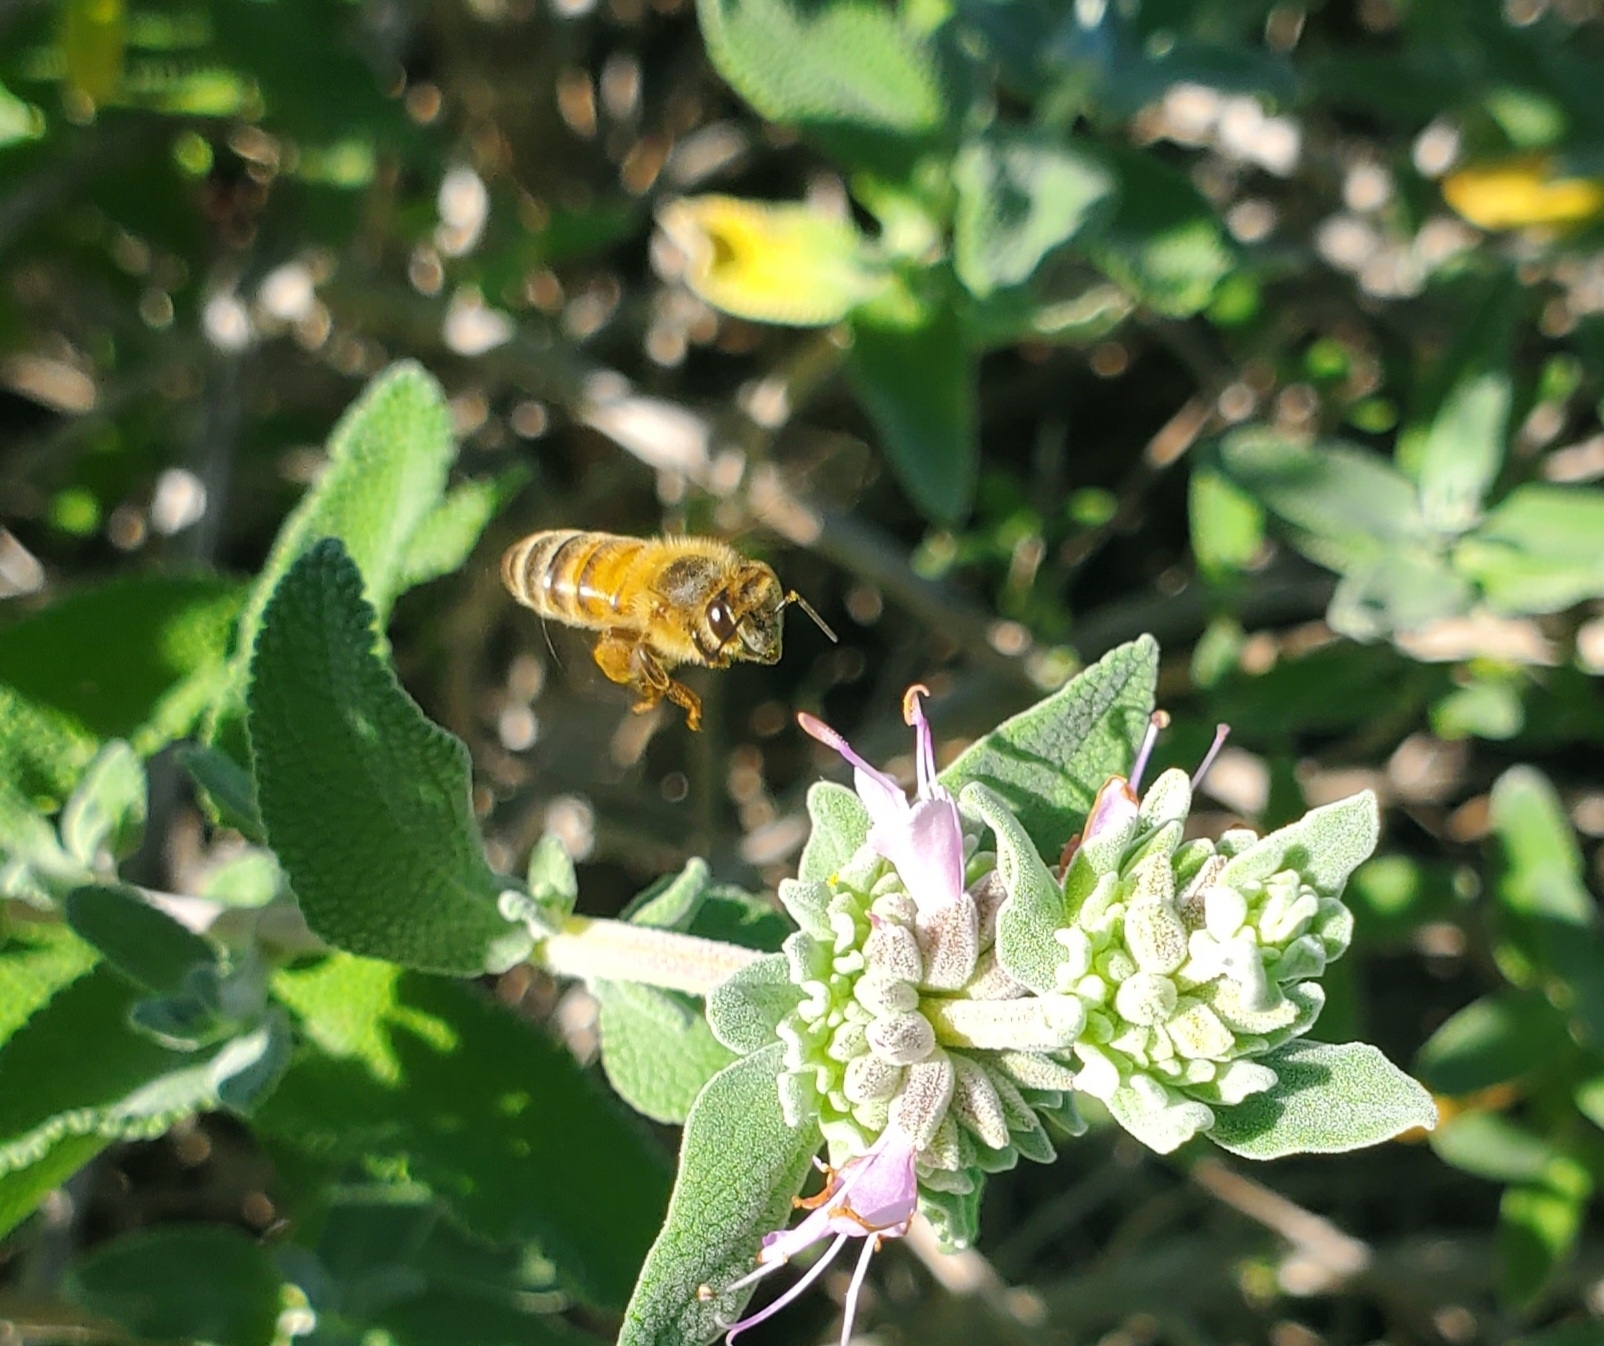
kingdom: Animalia
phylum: Arthropoda
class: Insecta
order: Hymenoptera
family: Apidae
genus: Apis
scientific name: Apis mellifera
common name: Honey bee
